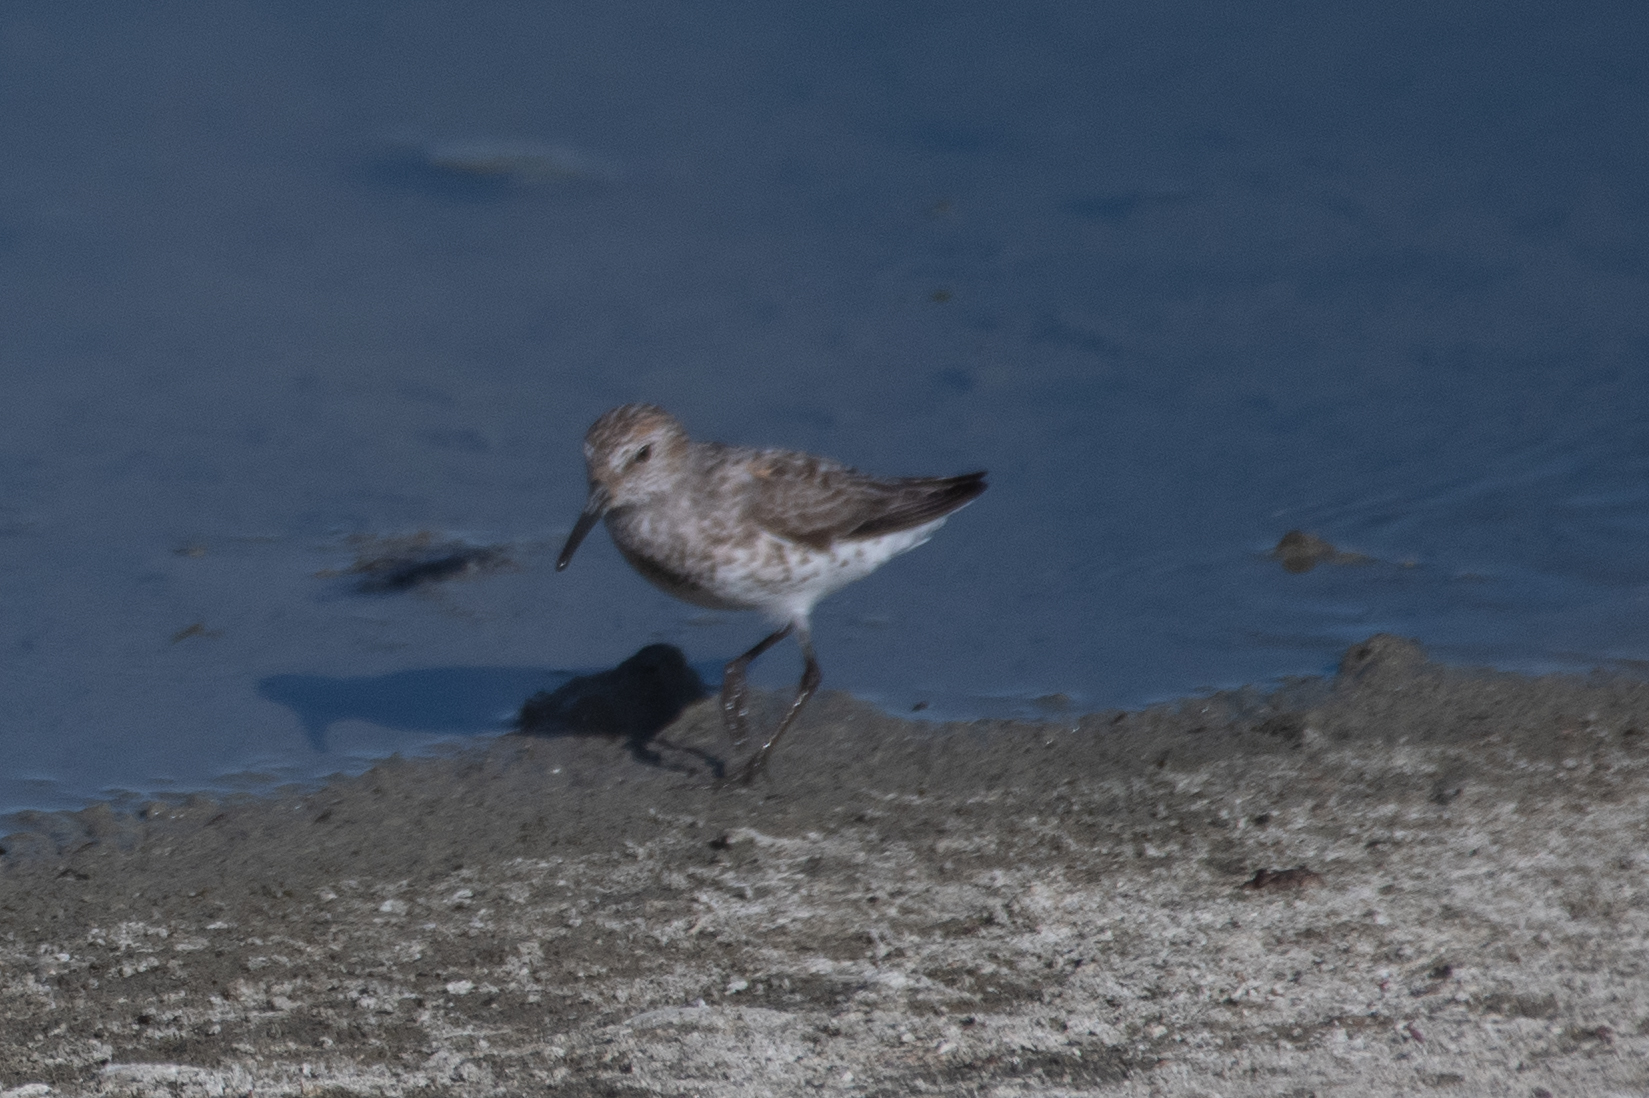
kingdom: Animalia
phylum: Chordata
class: Aves
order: Charadriiformes
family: Scolopacidae
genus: Calidris
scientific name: Calidris mauri
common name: Western sandpiper
